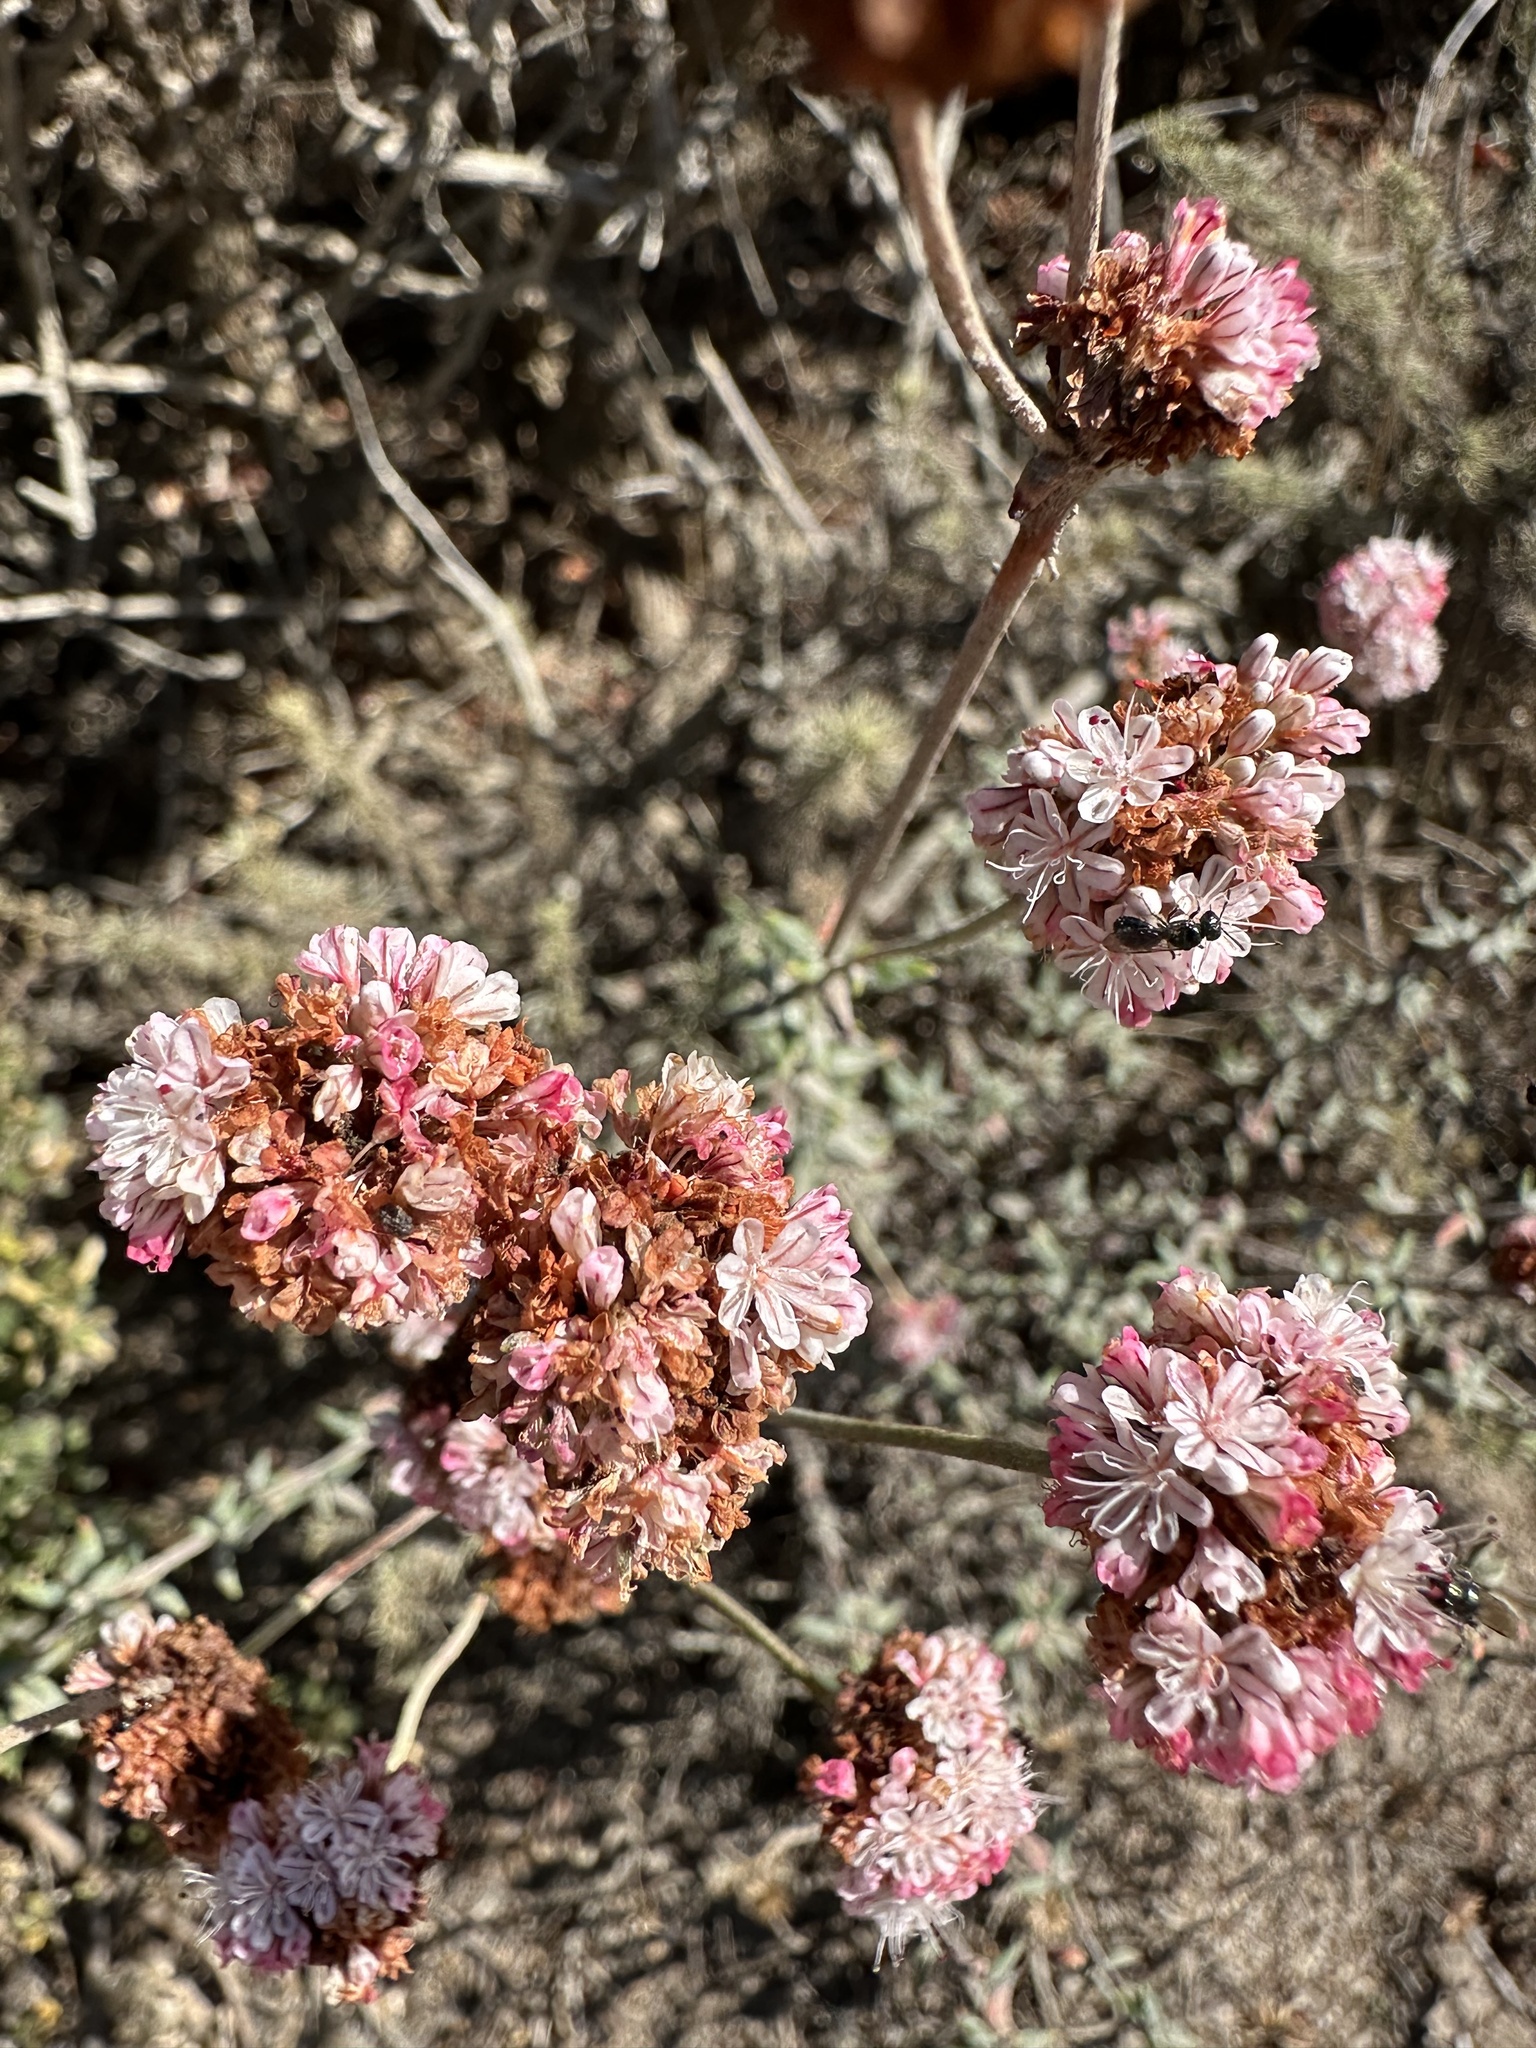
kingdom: Plantae
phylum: Tracheophyta
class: Magnoliopsida
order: Caryophyllales
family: Polygonaceae
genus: Eriogonum
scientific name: Eriogonum parvifolium
